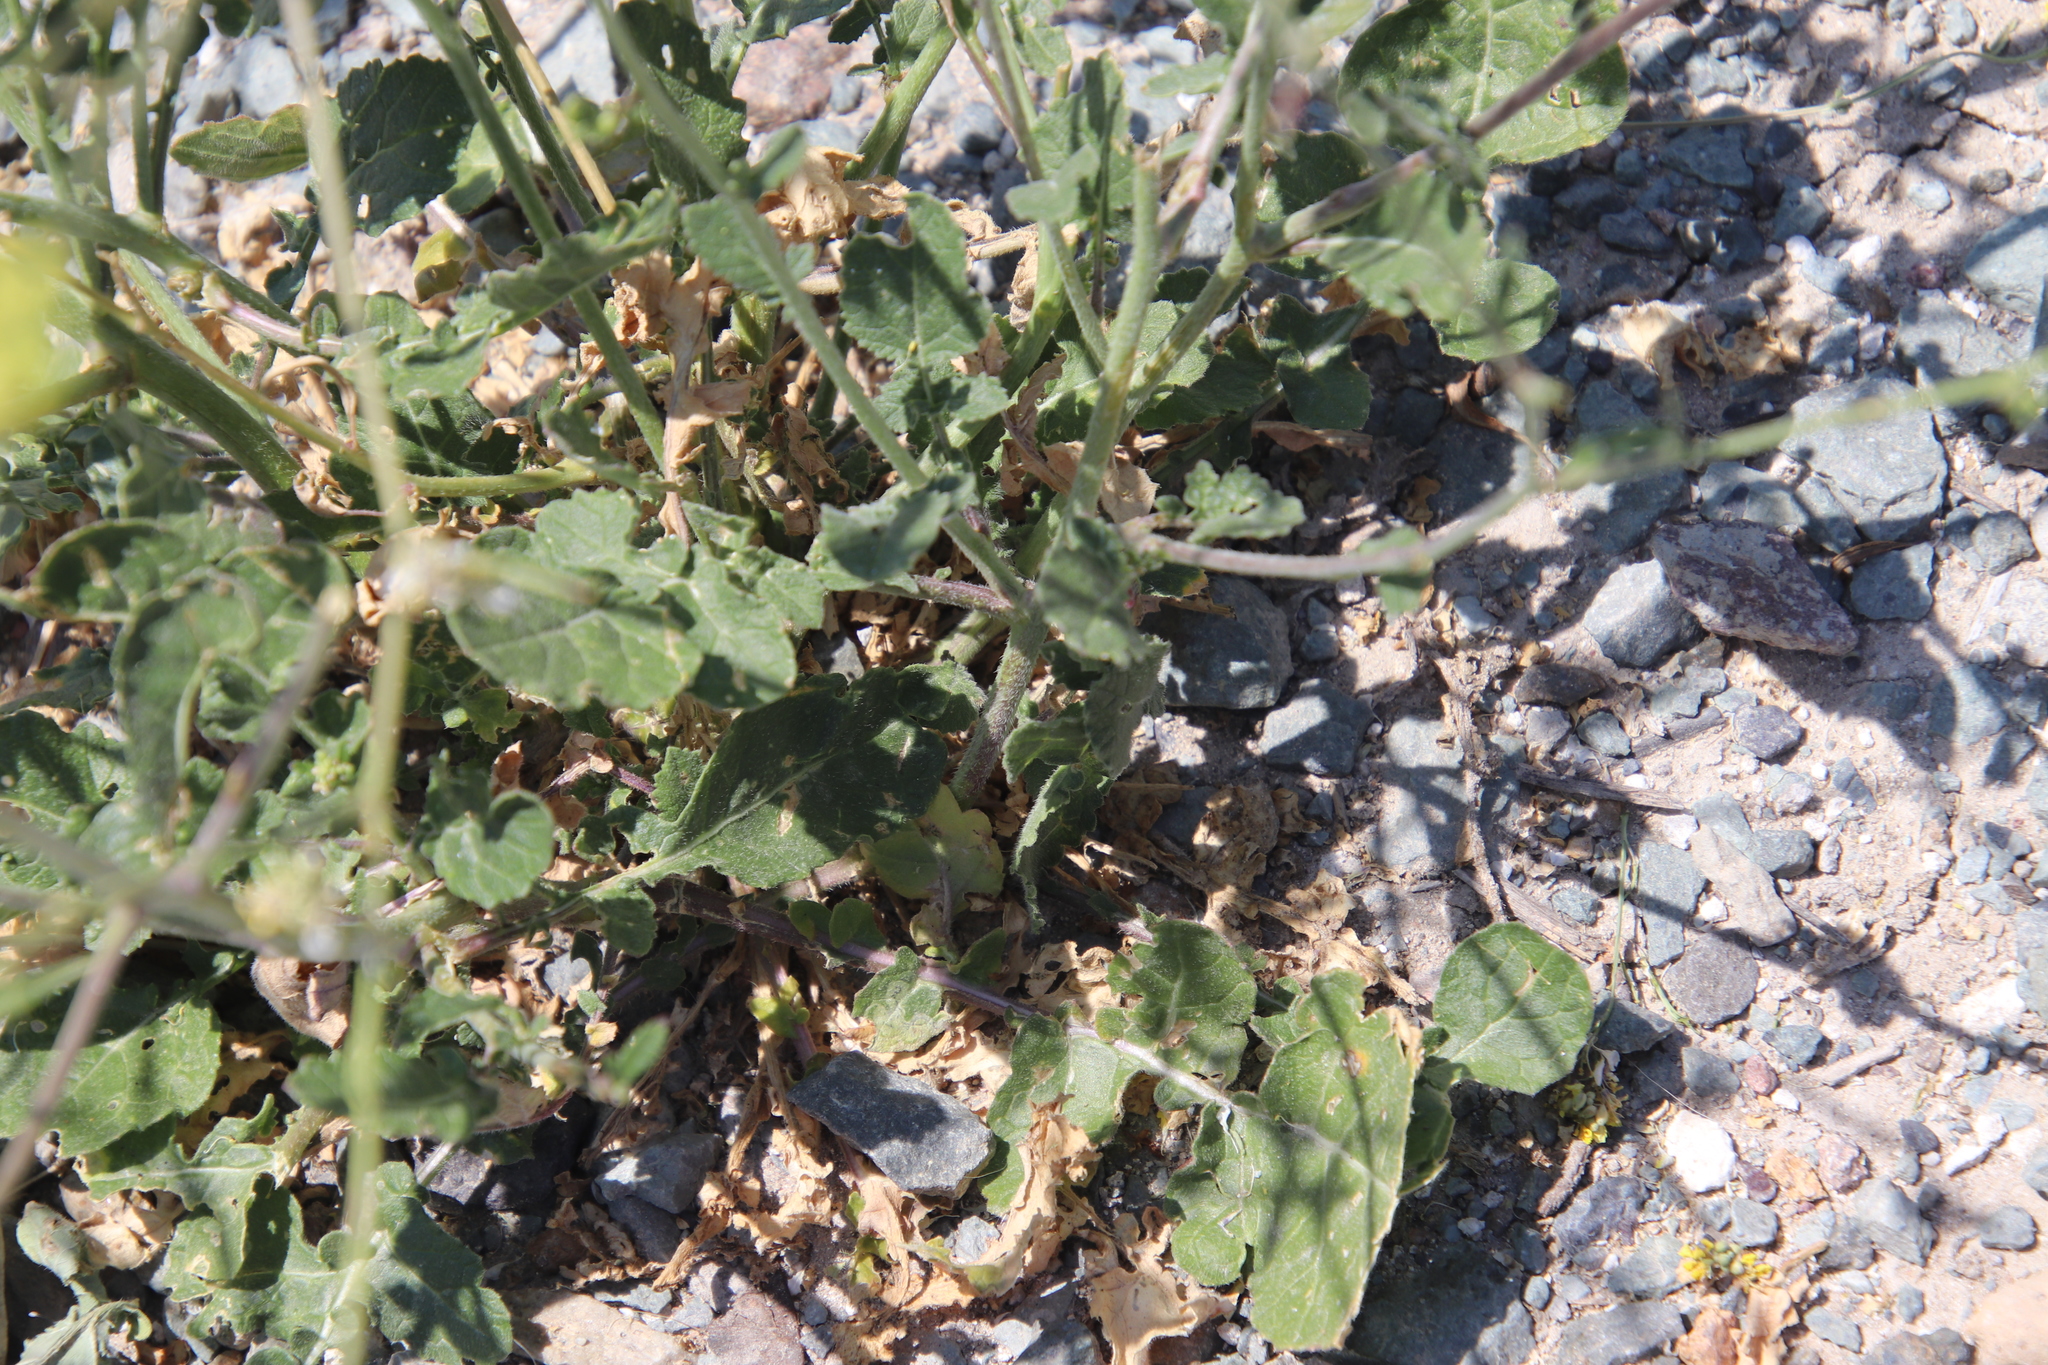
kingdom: Plantae
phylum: Tracheophyta
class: Magnoliopsida
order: Brassicales
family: Brassicaceae
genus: Hirschfeldia
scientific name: Hirschfeldia incana
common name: Hoary mustard
